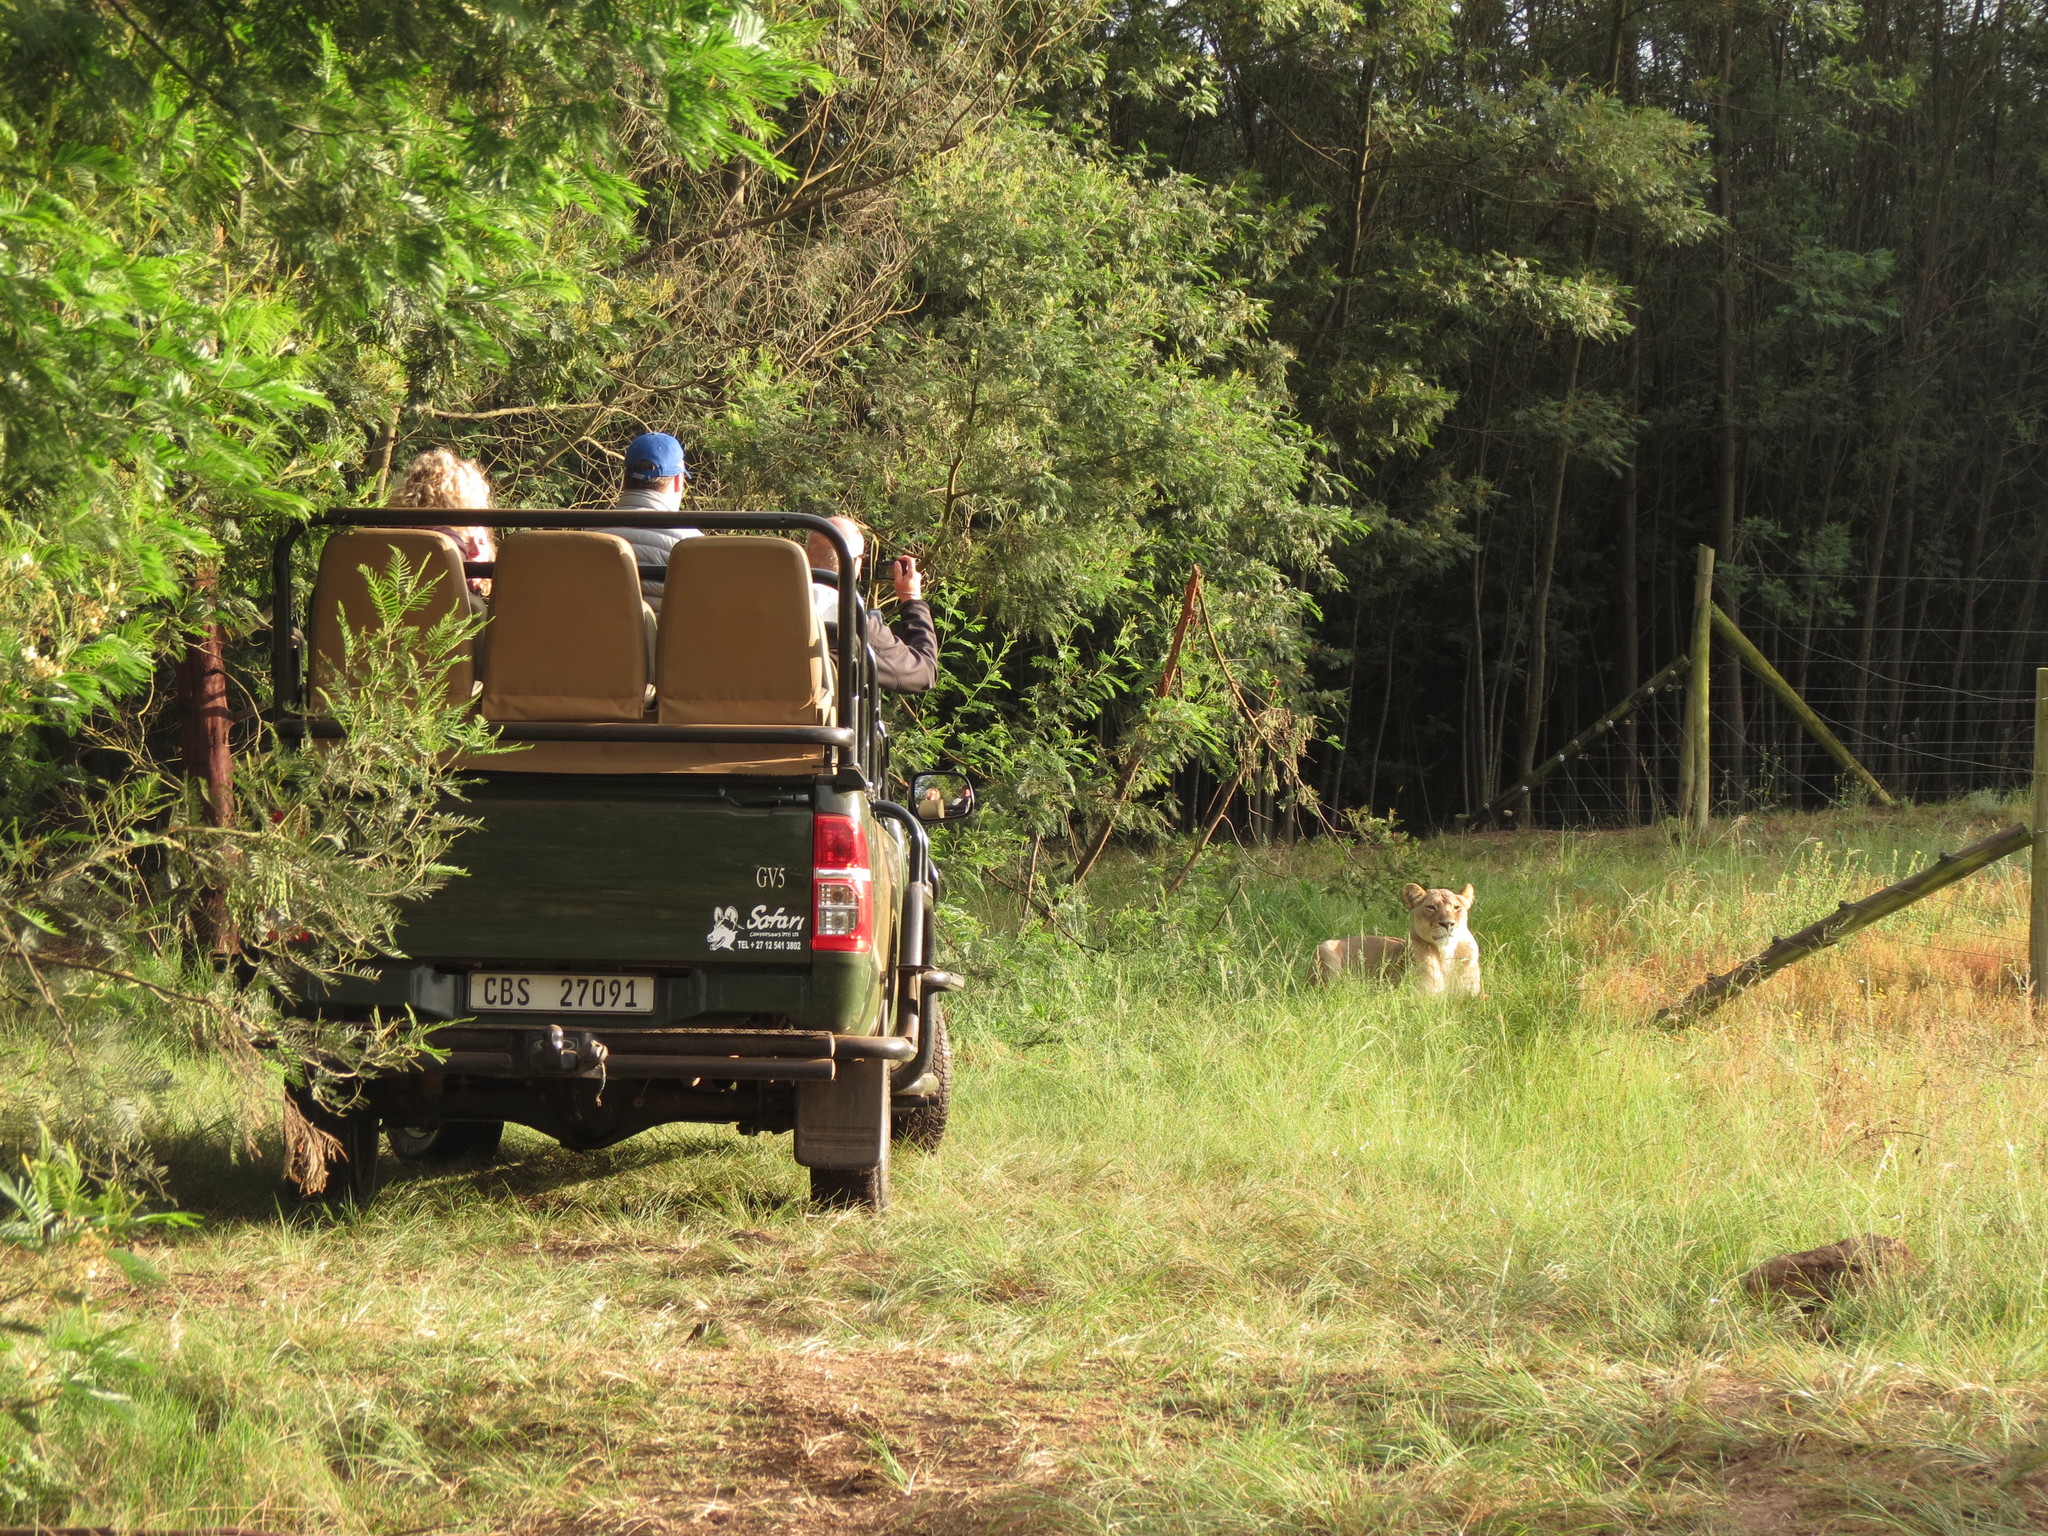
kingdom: Animalia
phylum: Chordata
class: Mammalia
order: Carnivora
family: Felidae
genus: Panthera
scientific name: Panthera leo
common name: Lion
